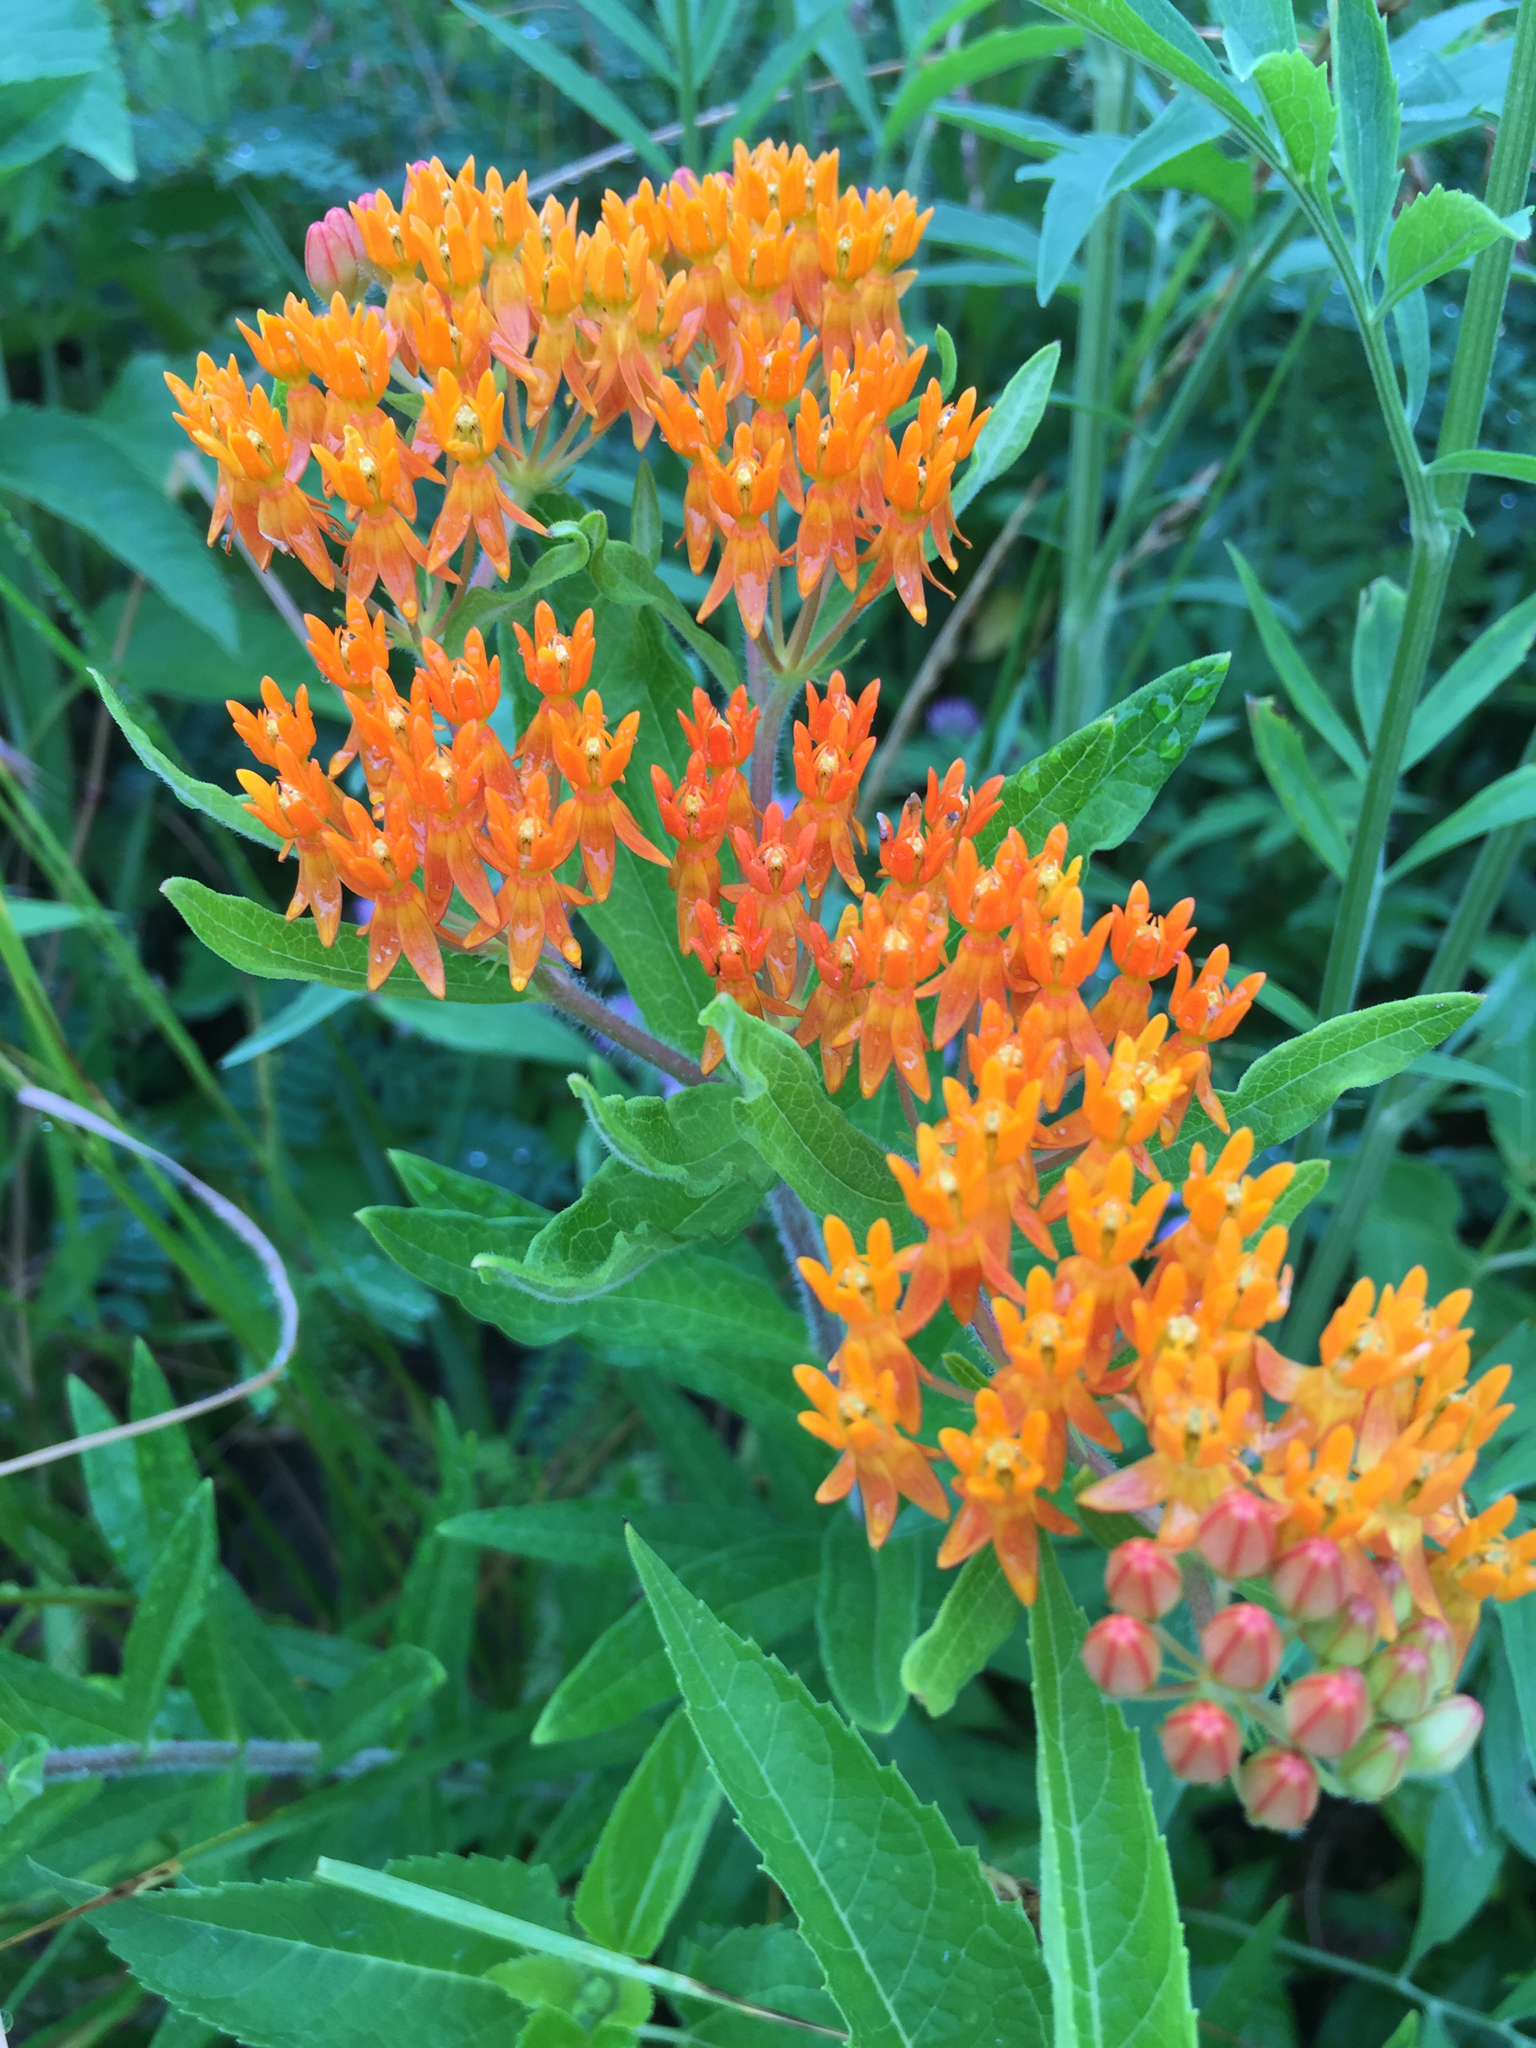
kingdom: Plantae
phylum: Tracheophyta
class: Magnoliopsida
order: Gentianales
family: Apocynaceae
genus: Asclepias
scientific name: Asclepias tuberosa
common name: Butterfly milkweed
